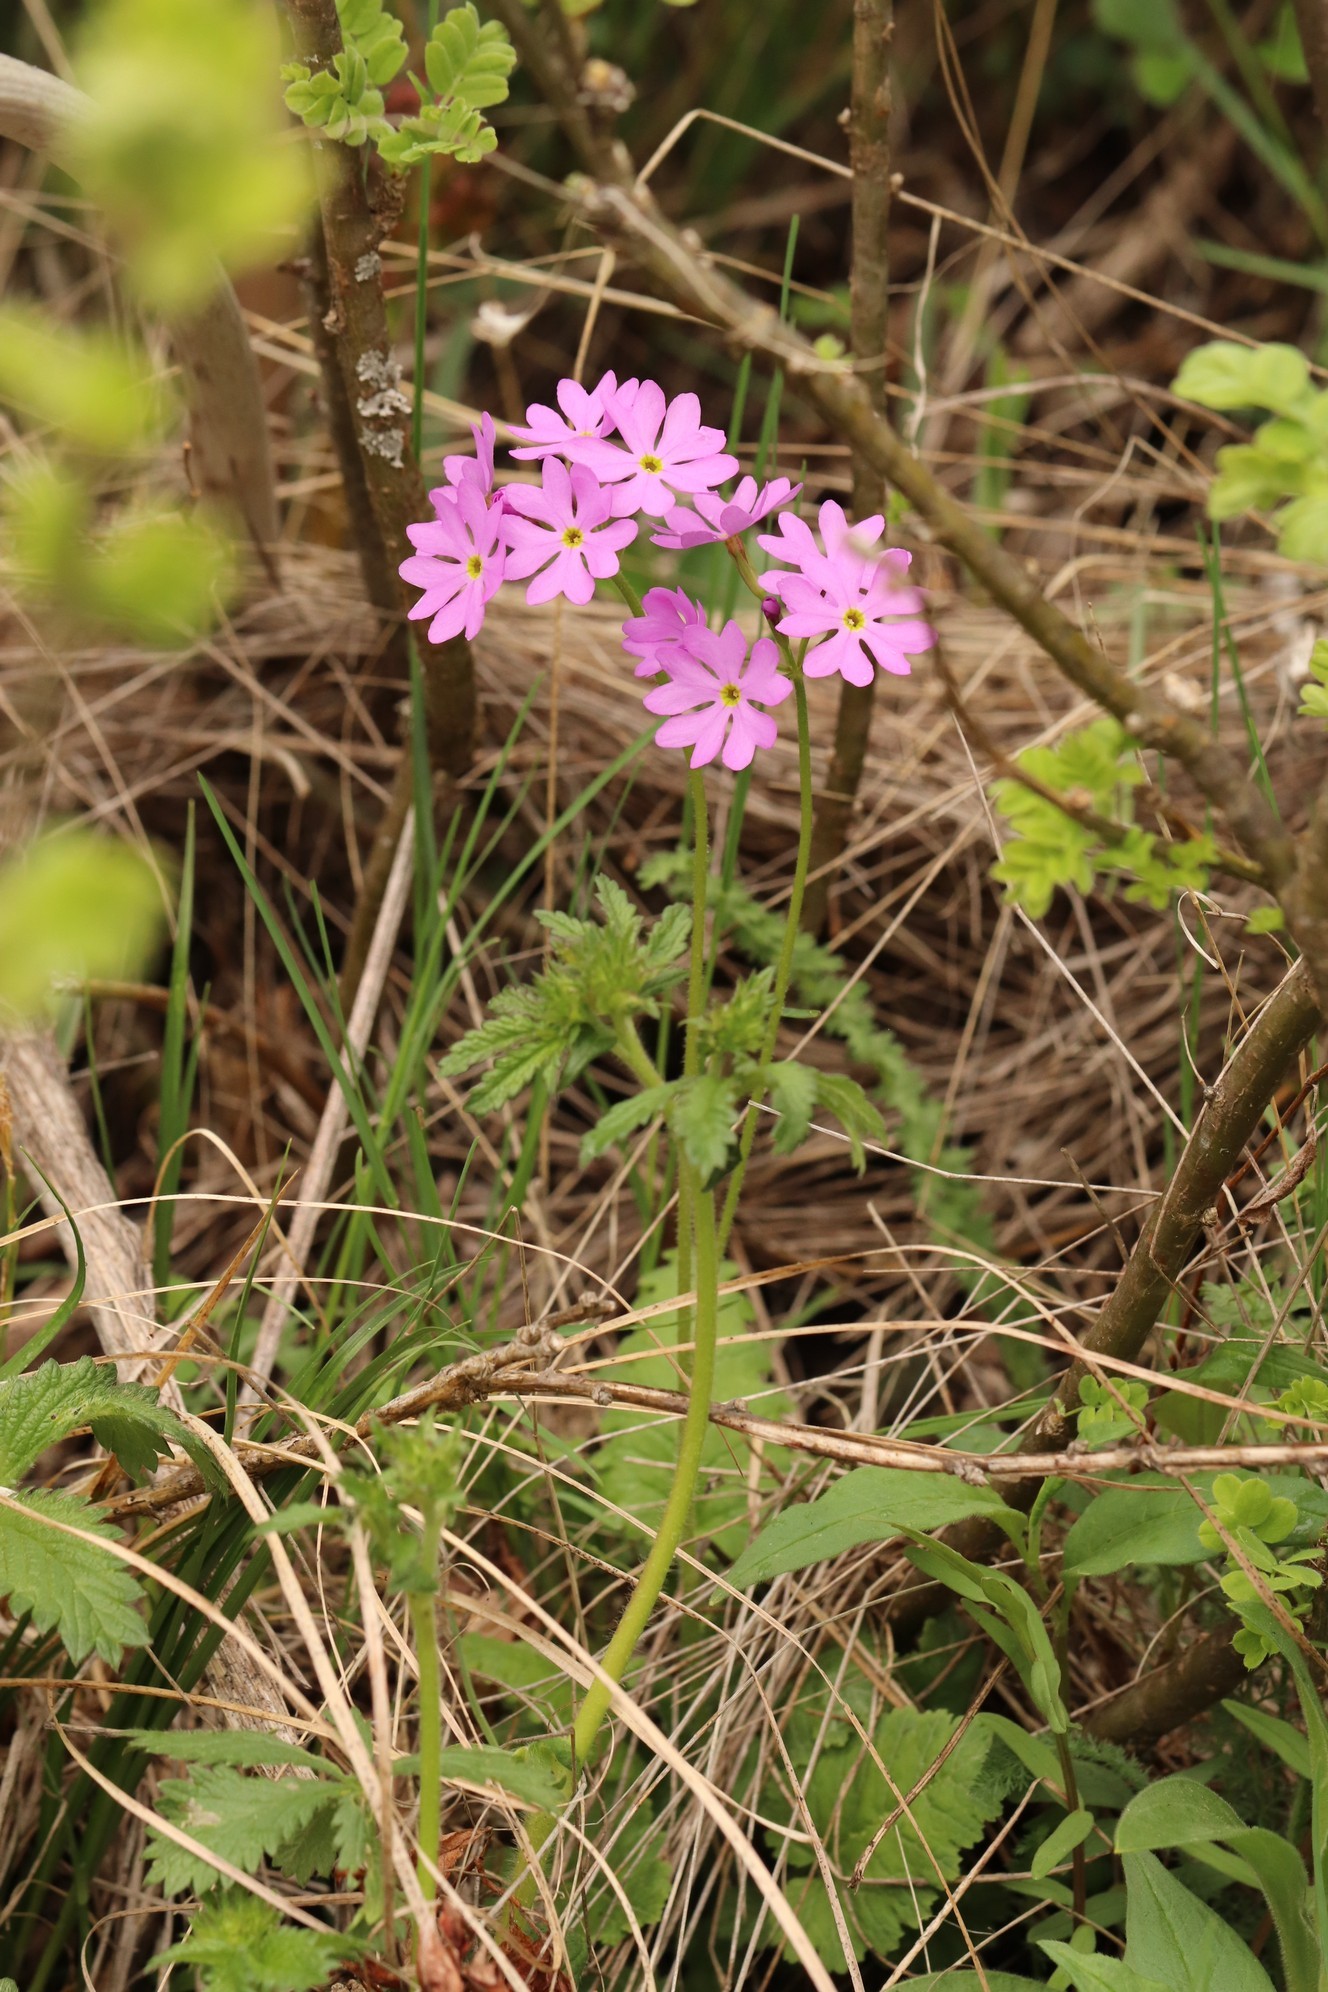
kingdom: Plantae
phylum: Tracheophyta
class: Magnoliopsida
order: Ericales
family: Primulaceae
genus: Primula
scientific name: Primula cortusoides
